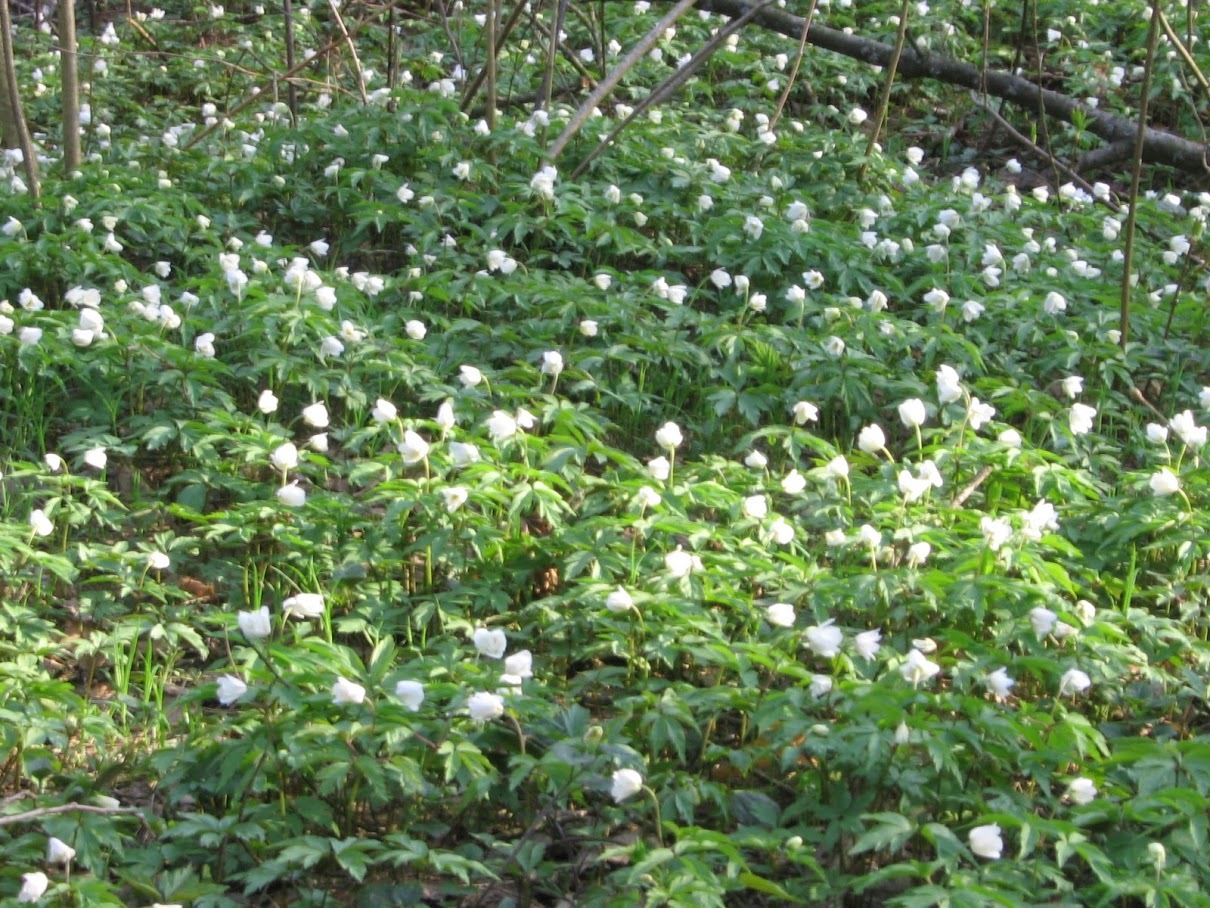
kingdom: Plantae
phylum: Tracheophyta
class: Magnoliopsida
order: Ranunculales
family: Ranunculaceae
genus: Anemone
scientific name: Anemone nemorosa
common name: Wood anemone
